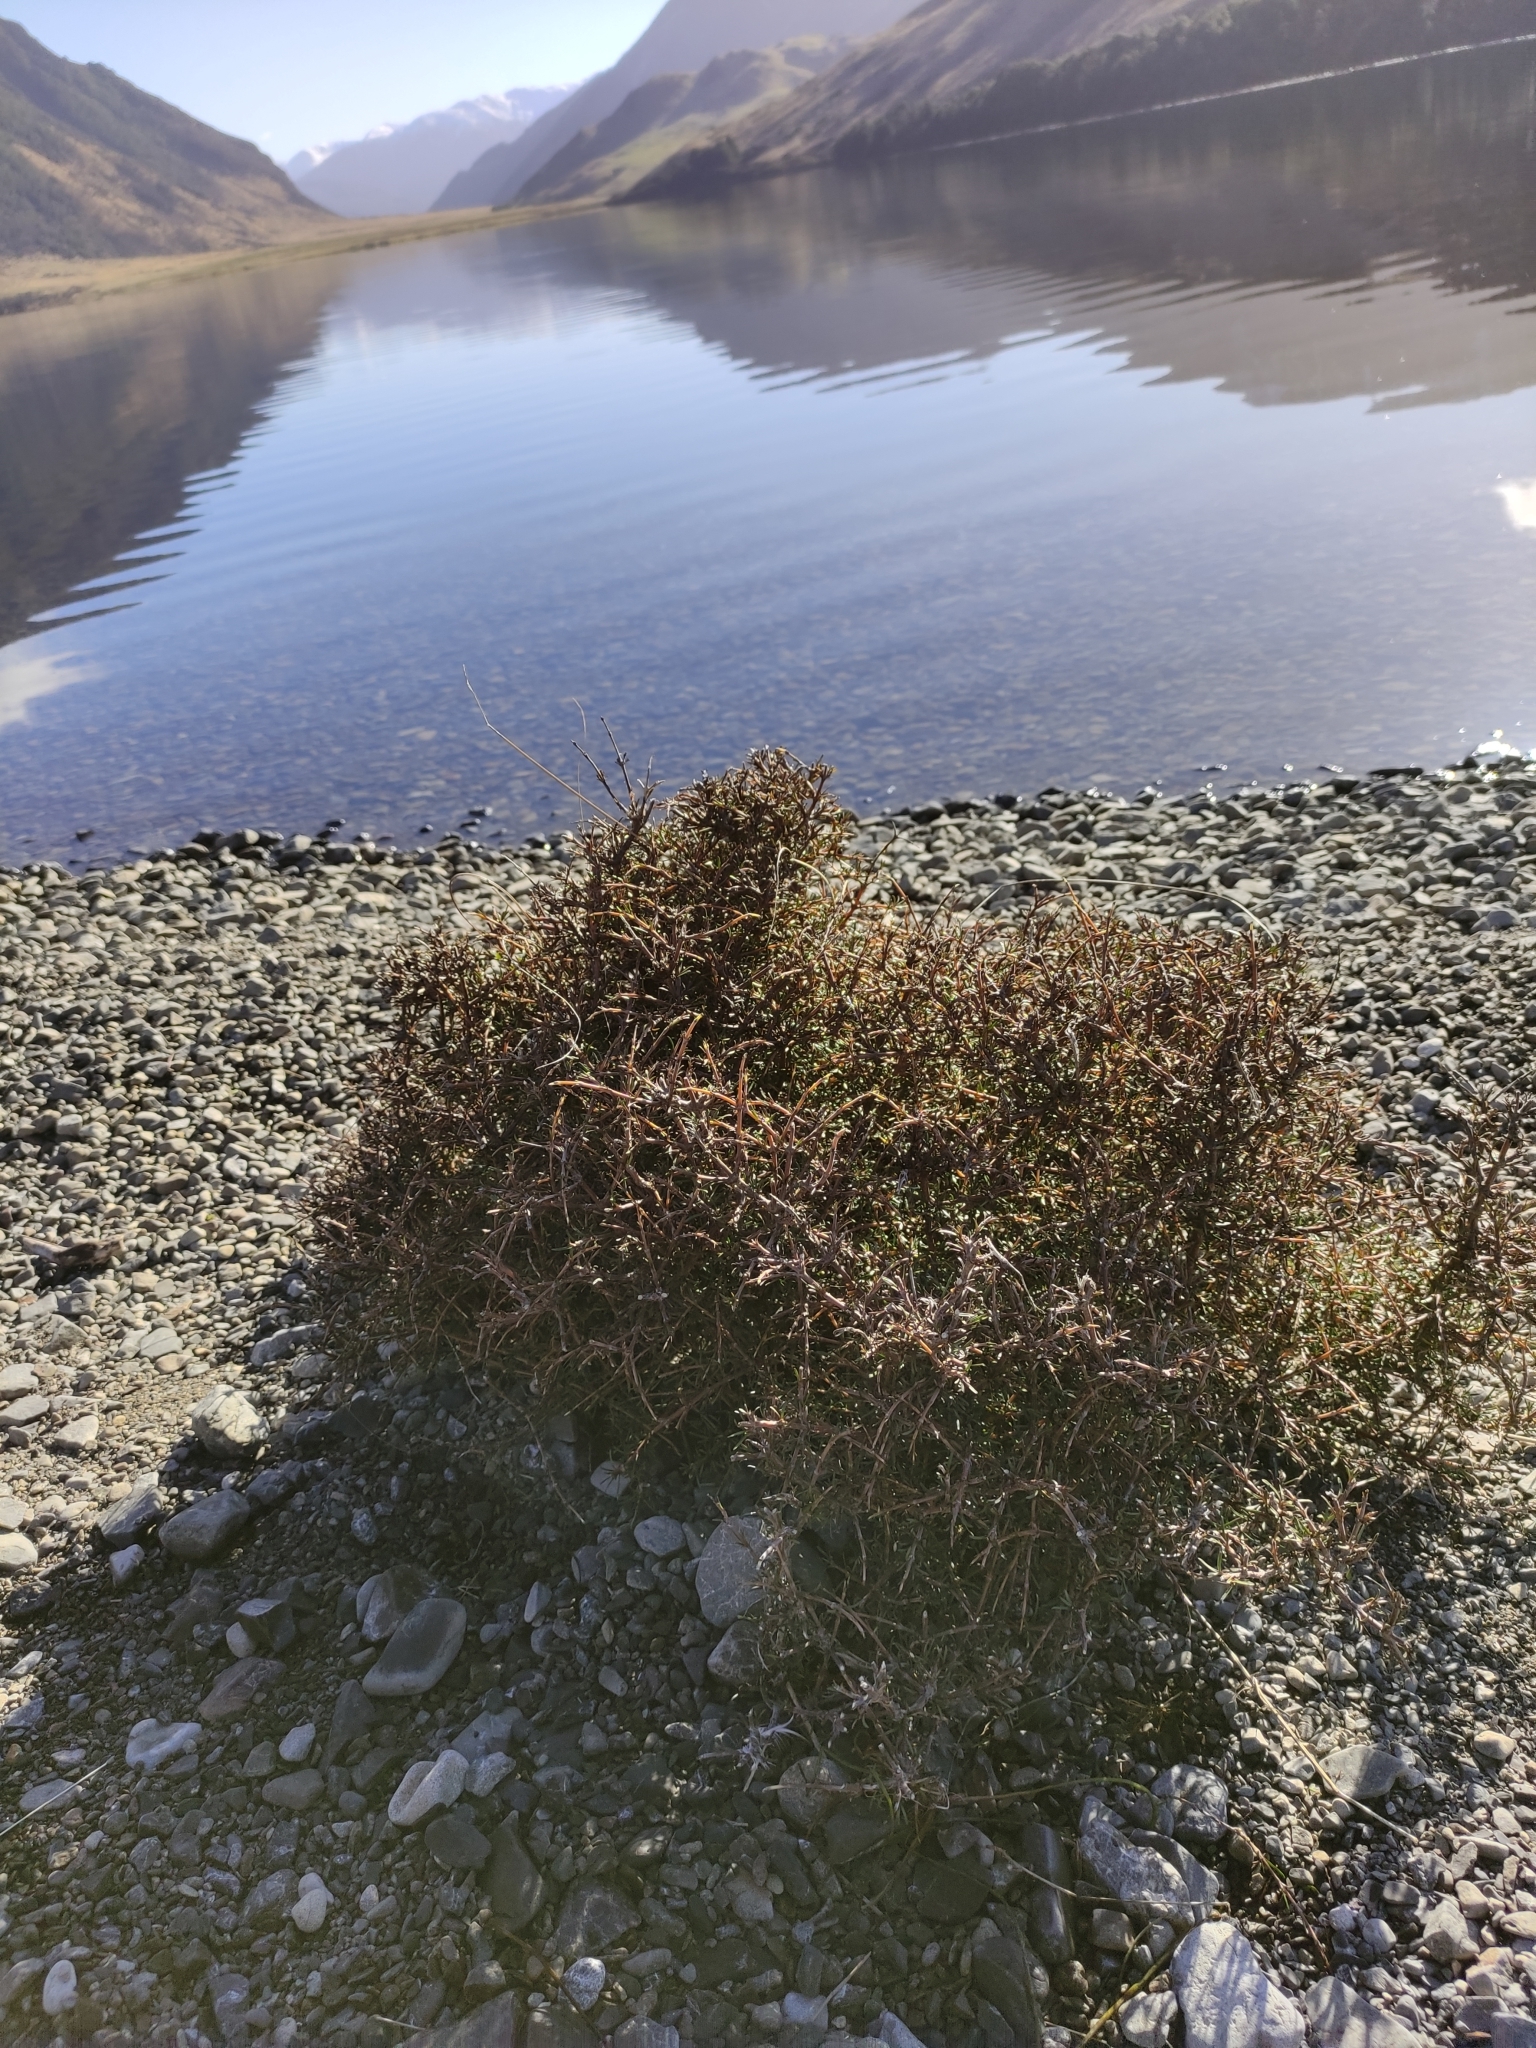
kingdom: Plantae
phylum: Tracheophyta
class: Magnoliopsida
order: Gentianales
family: Rubiaceae
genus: Coprosma
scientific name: Coprosma rugosa
